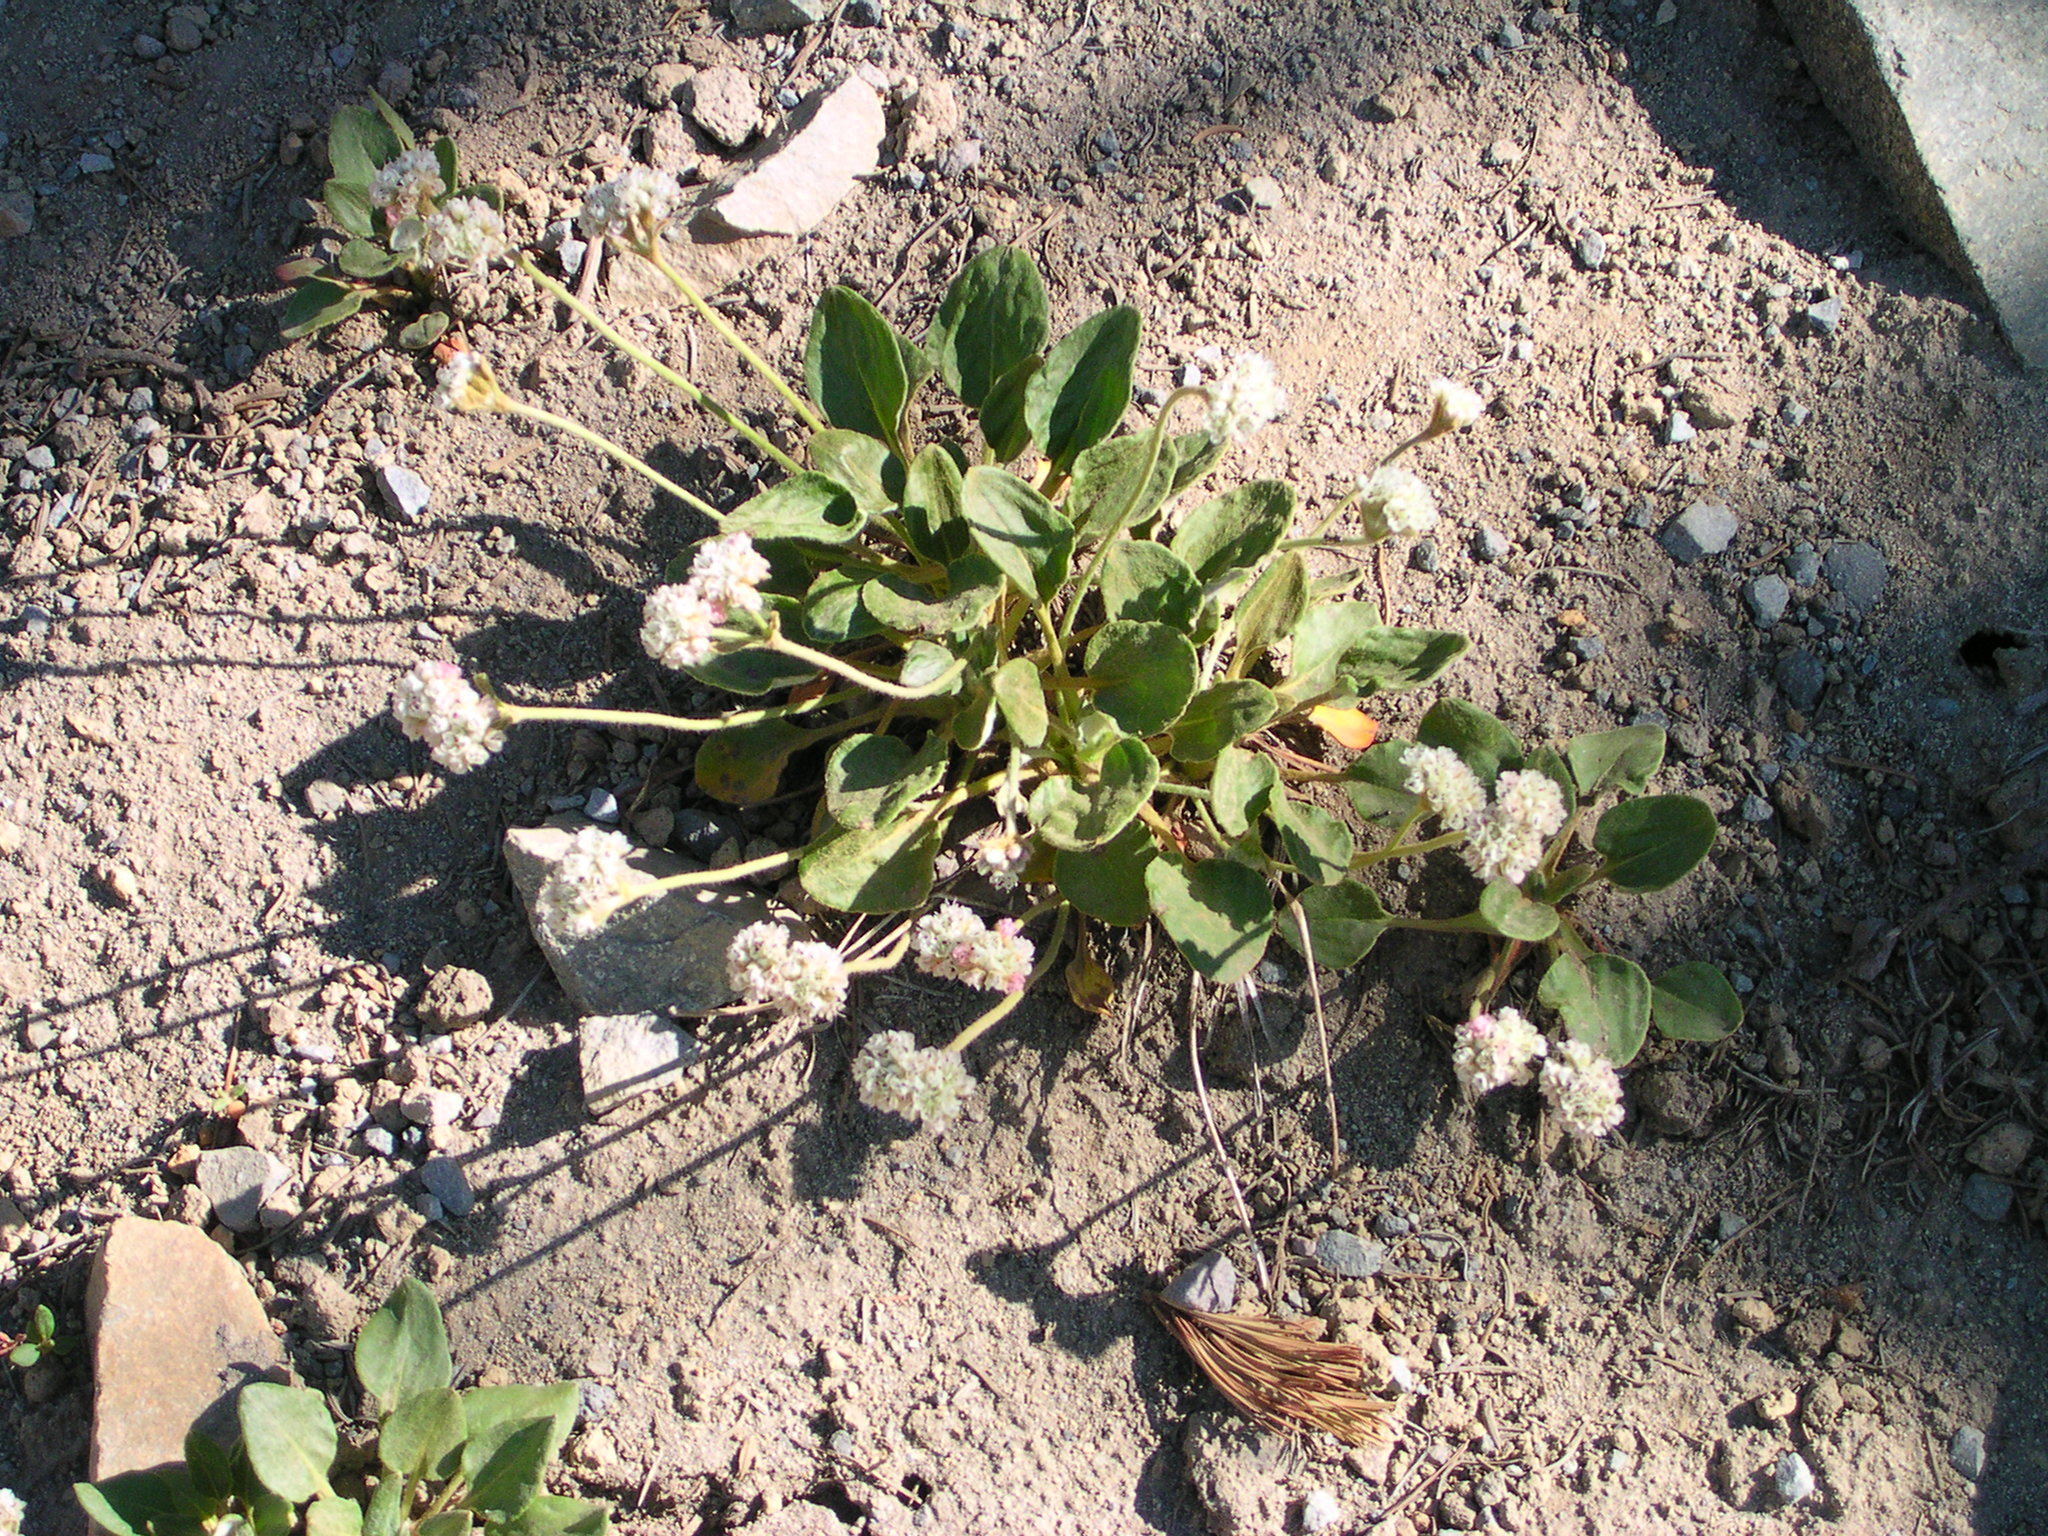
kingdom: Plantae
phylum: Tracheophyta
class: Magnoliopsida
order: Caryophyllales
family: Polygonaceae
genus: Eriogonum
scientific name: Eriogonum pyrolifolium
